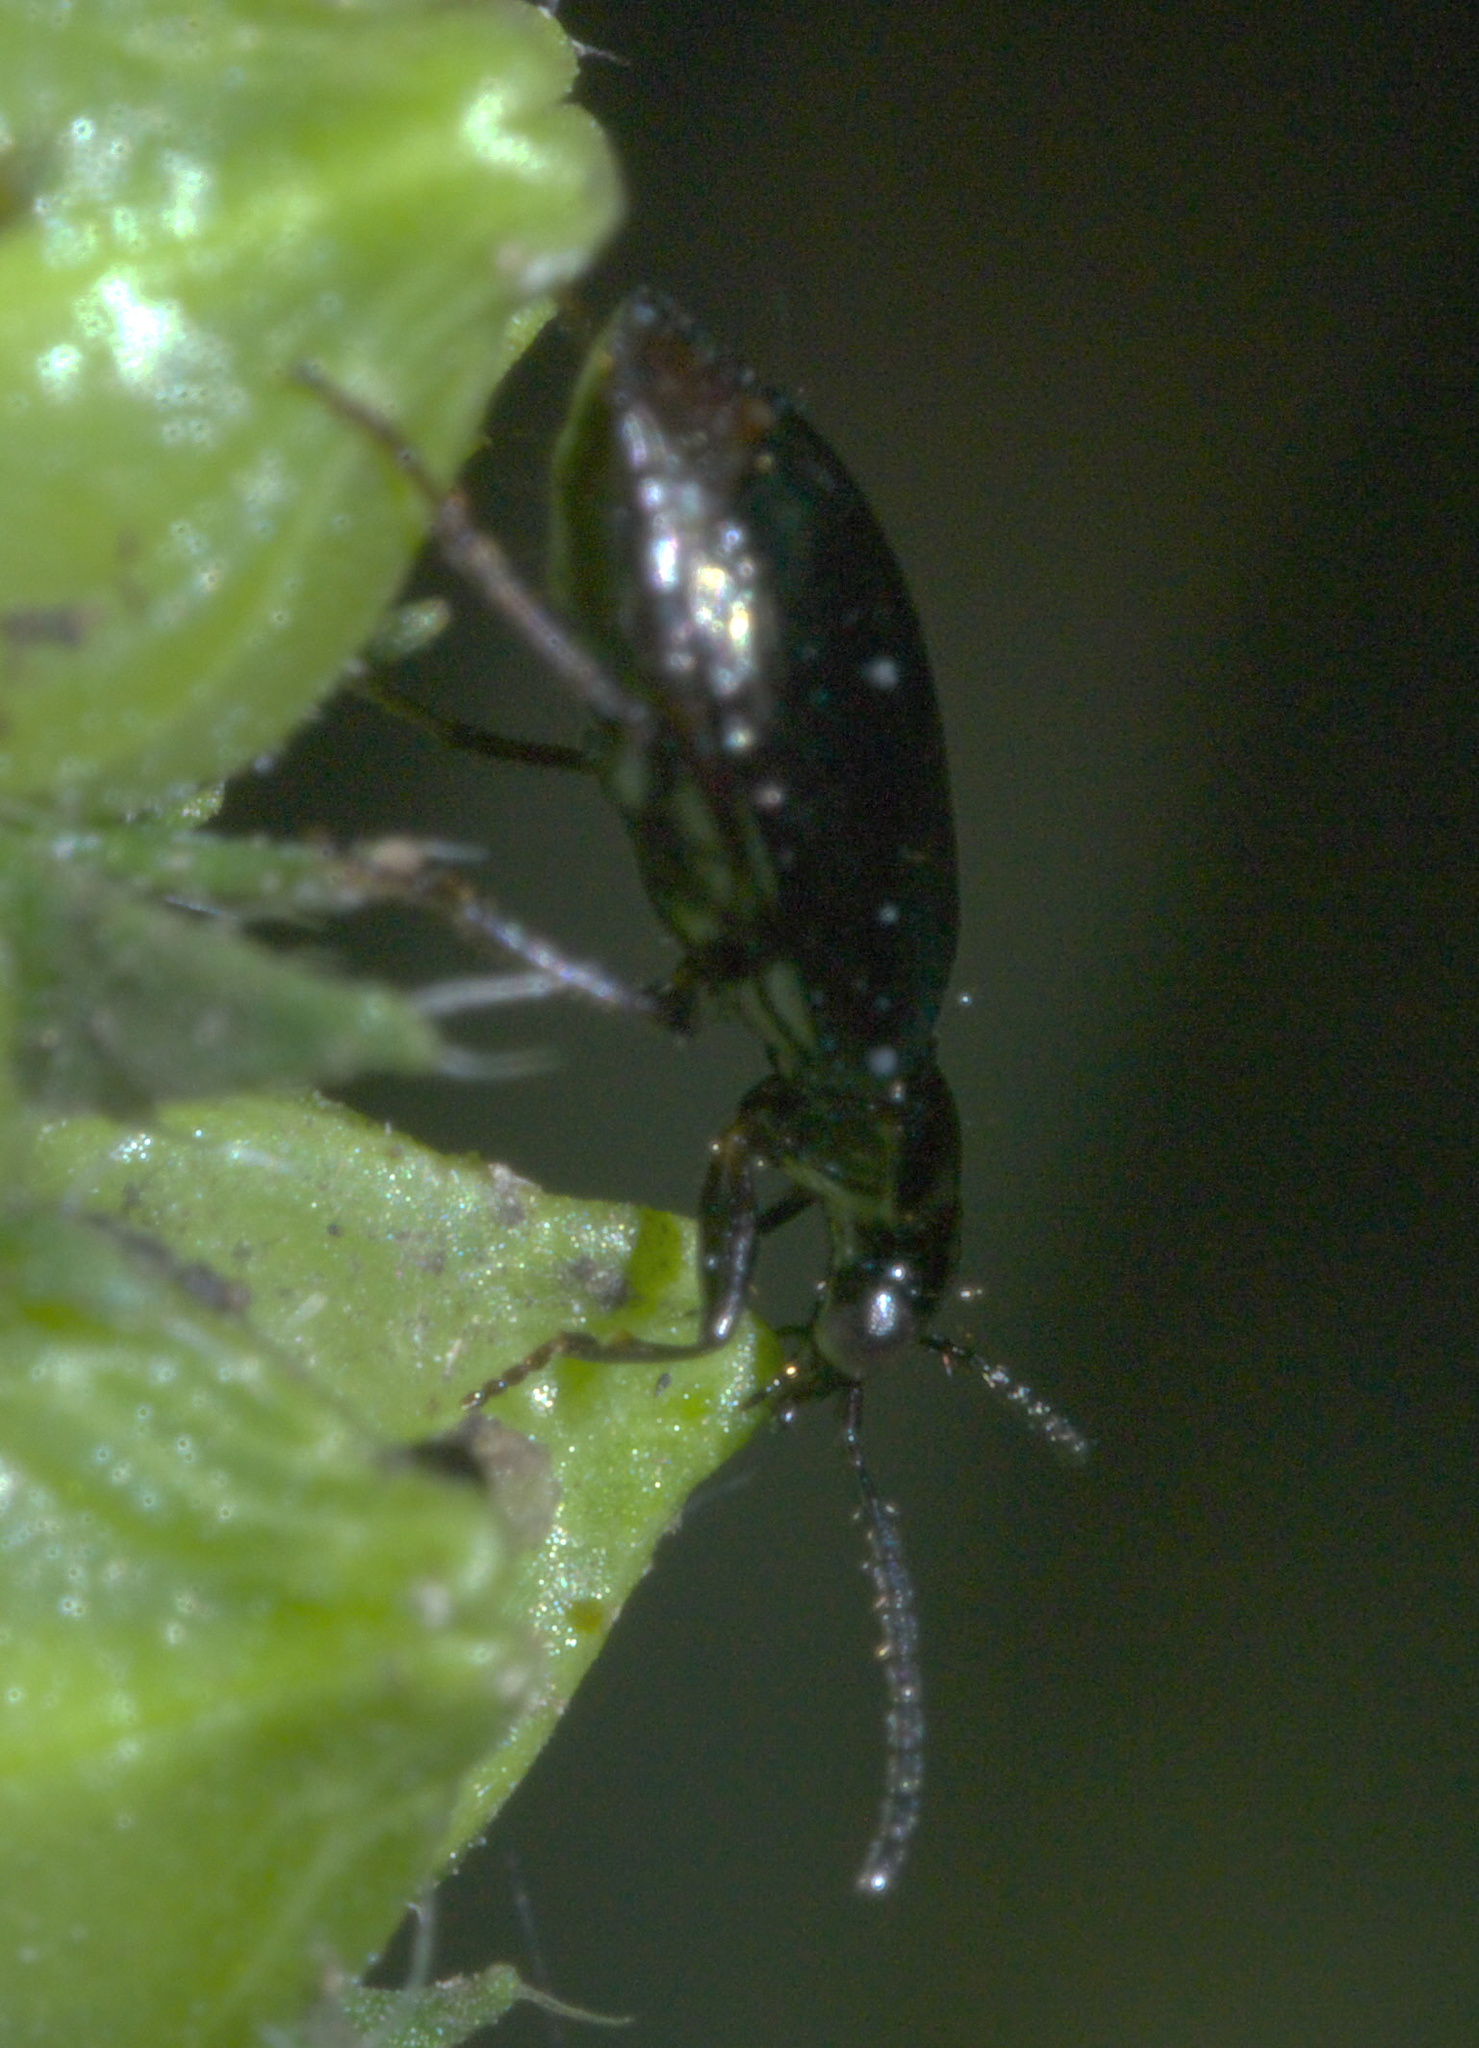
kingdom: Animalia
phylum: Arthropoda
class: Insecta
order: Coleoptera
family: Carabidae
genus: Lebia
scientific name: Lebia viridis
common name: Flower lebia beetle
